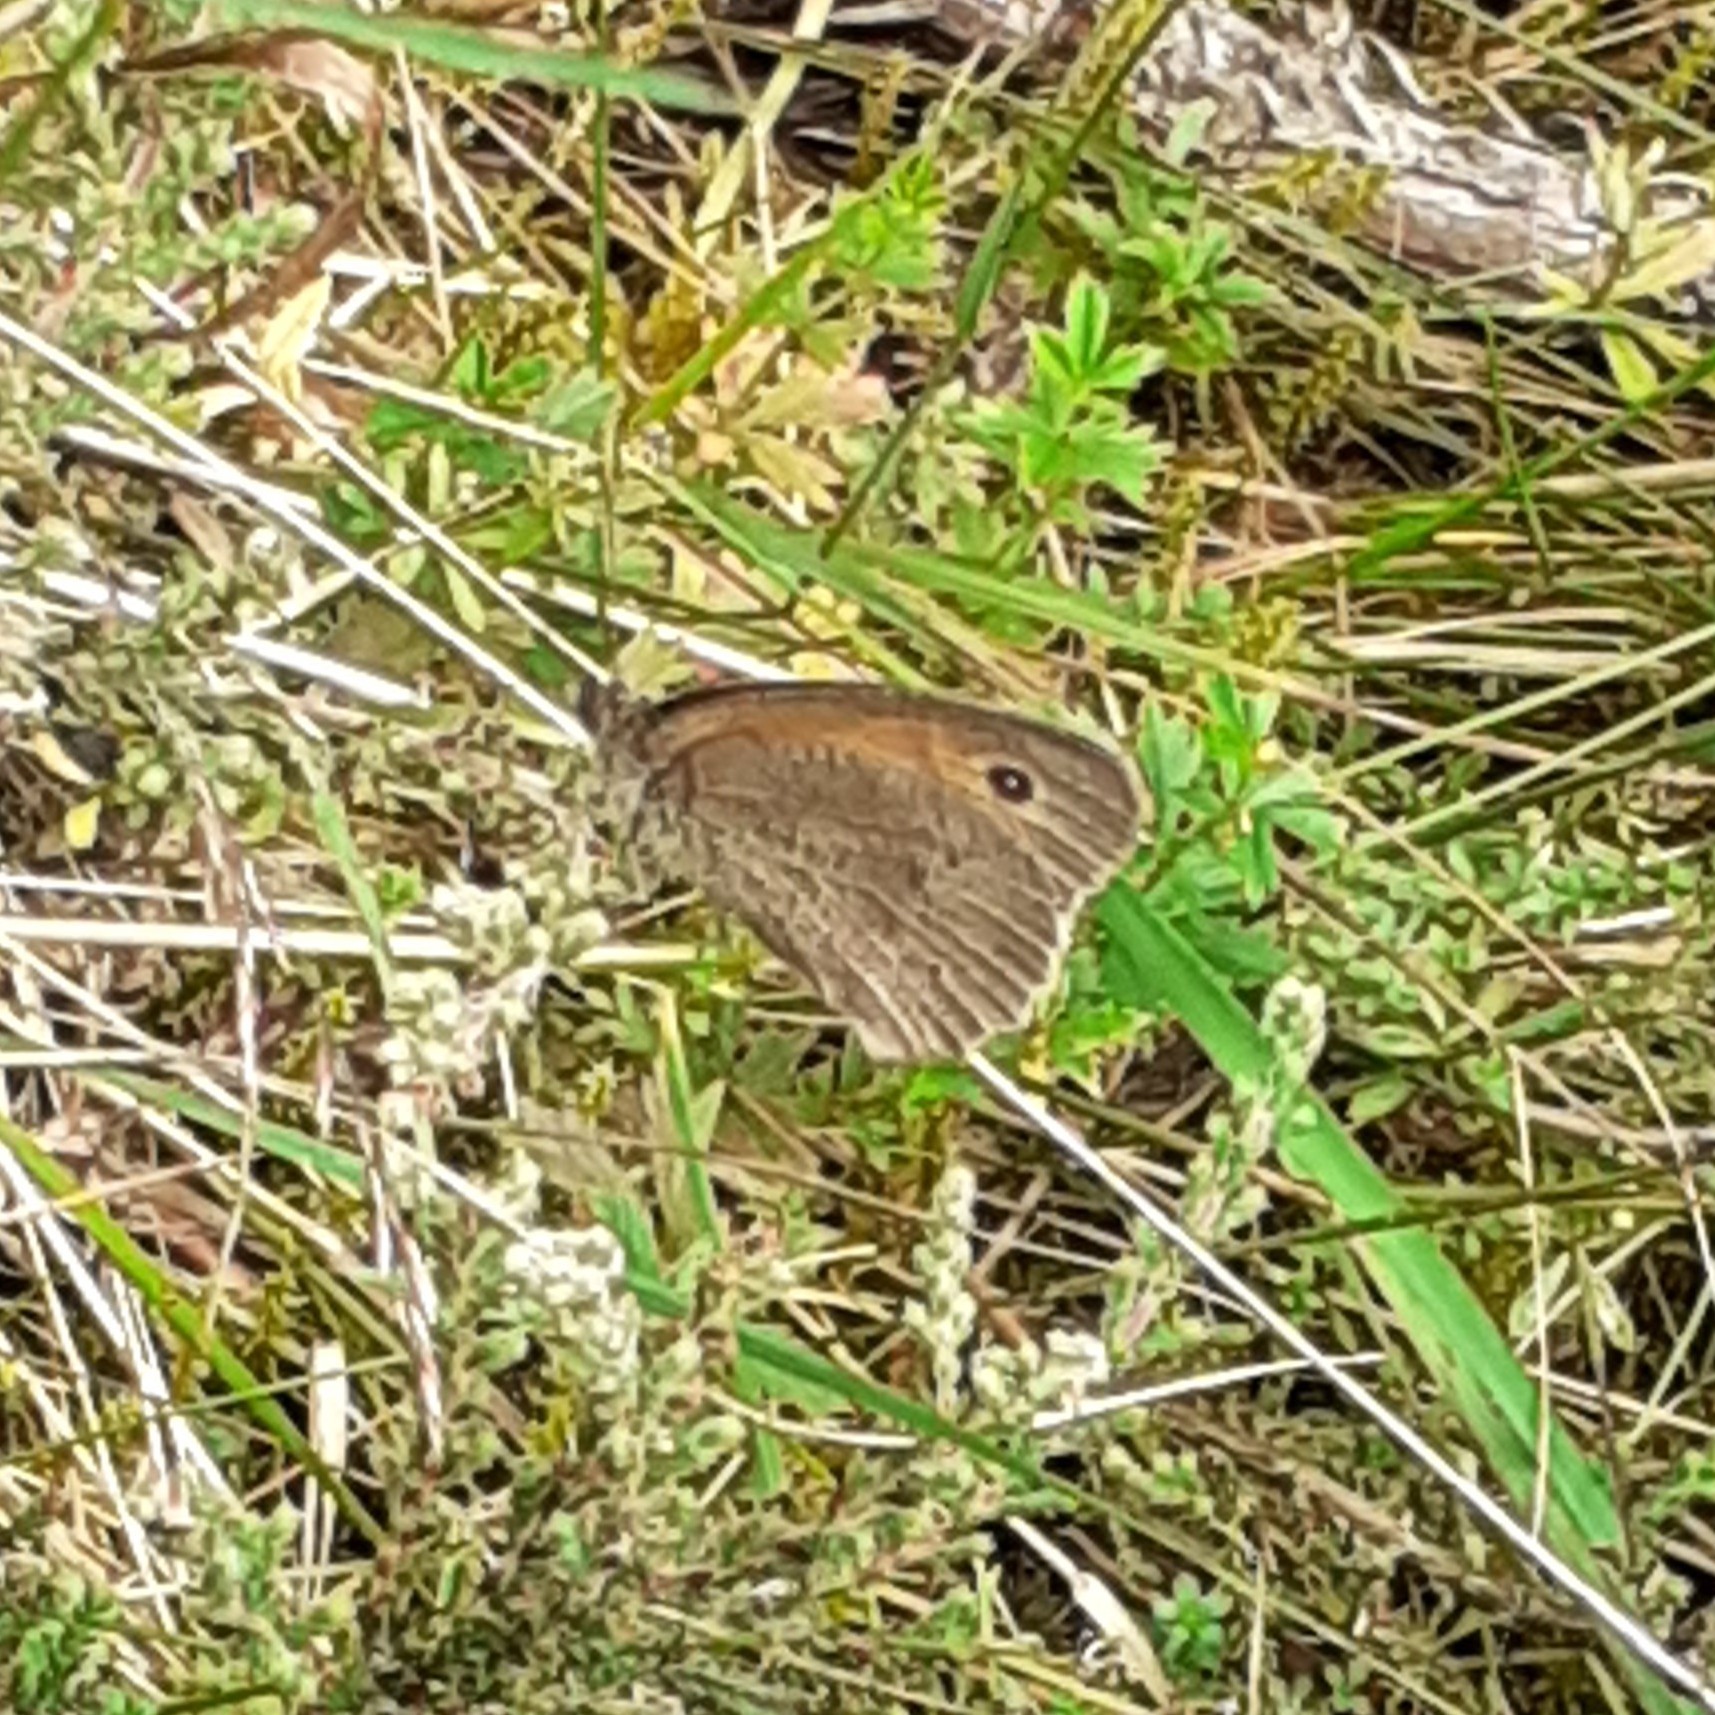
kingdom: Animalia
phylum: Arthropoda
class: Insecta
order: Lepidoptera
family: Nymphalidae
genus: Maniola
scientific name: Maniola jurtina
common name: Meadow brown
